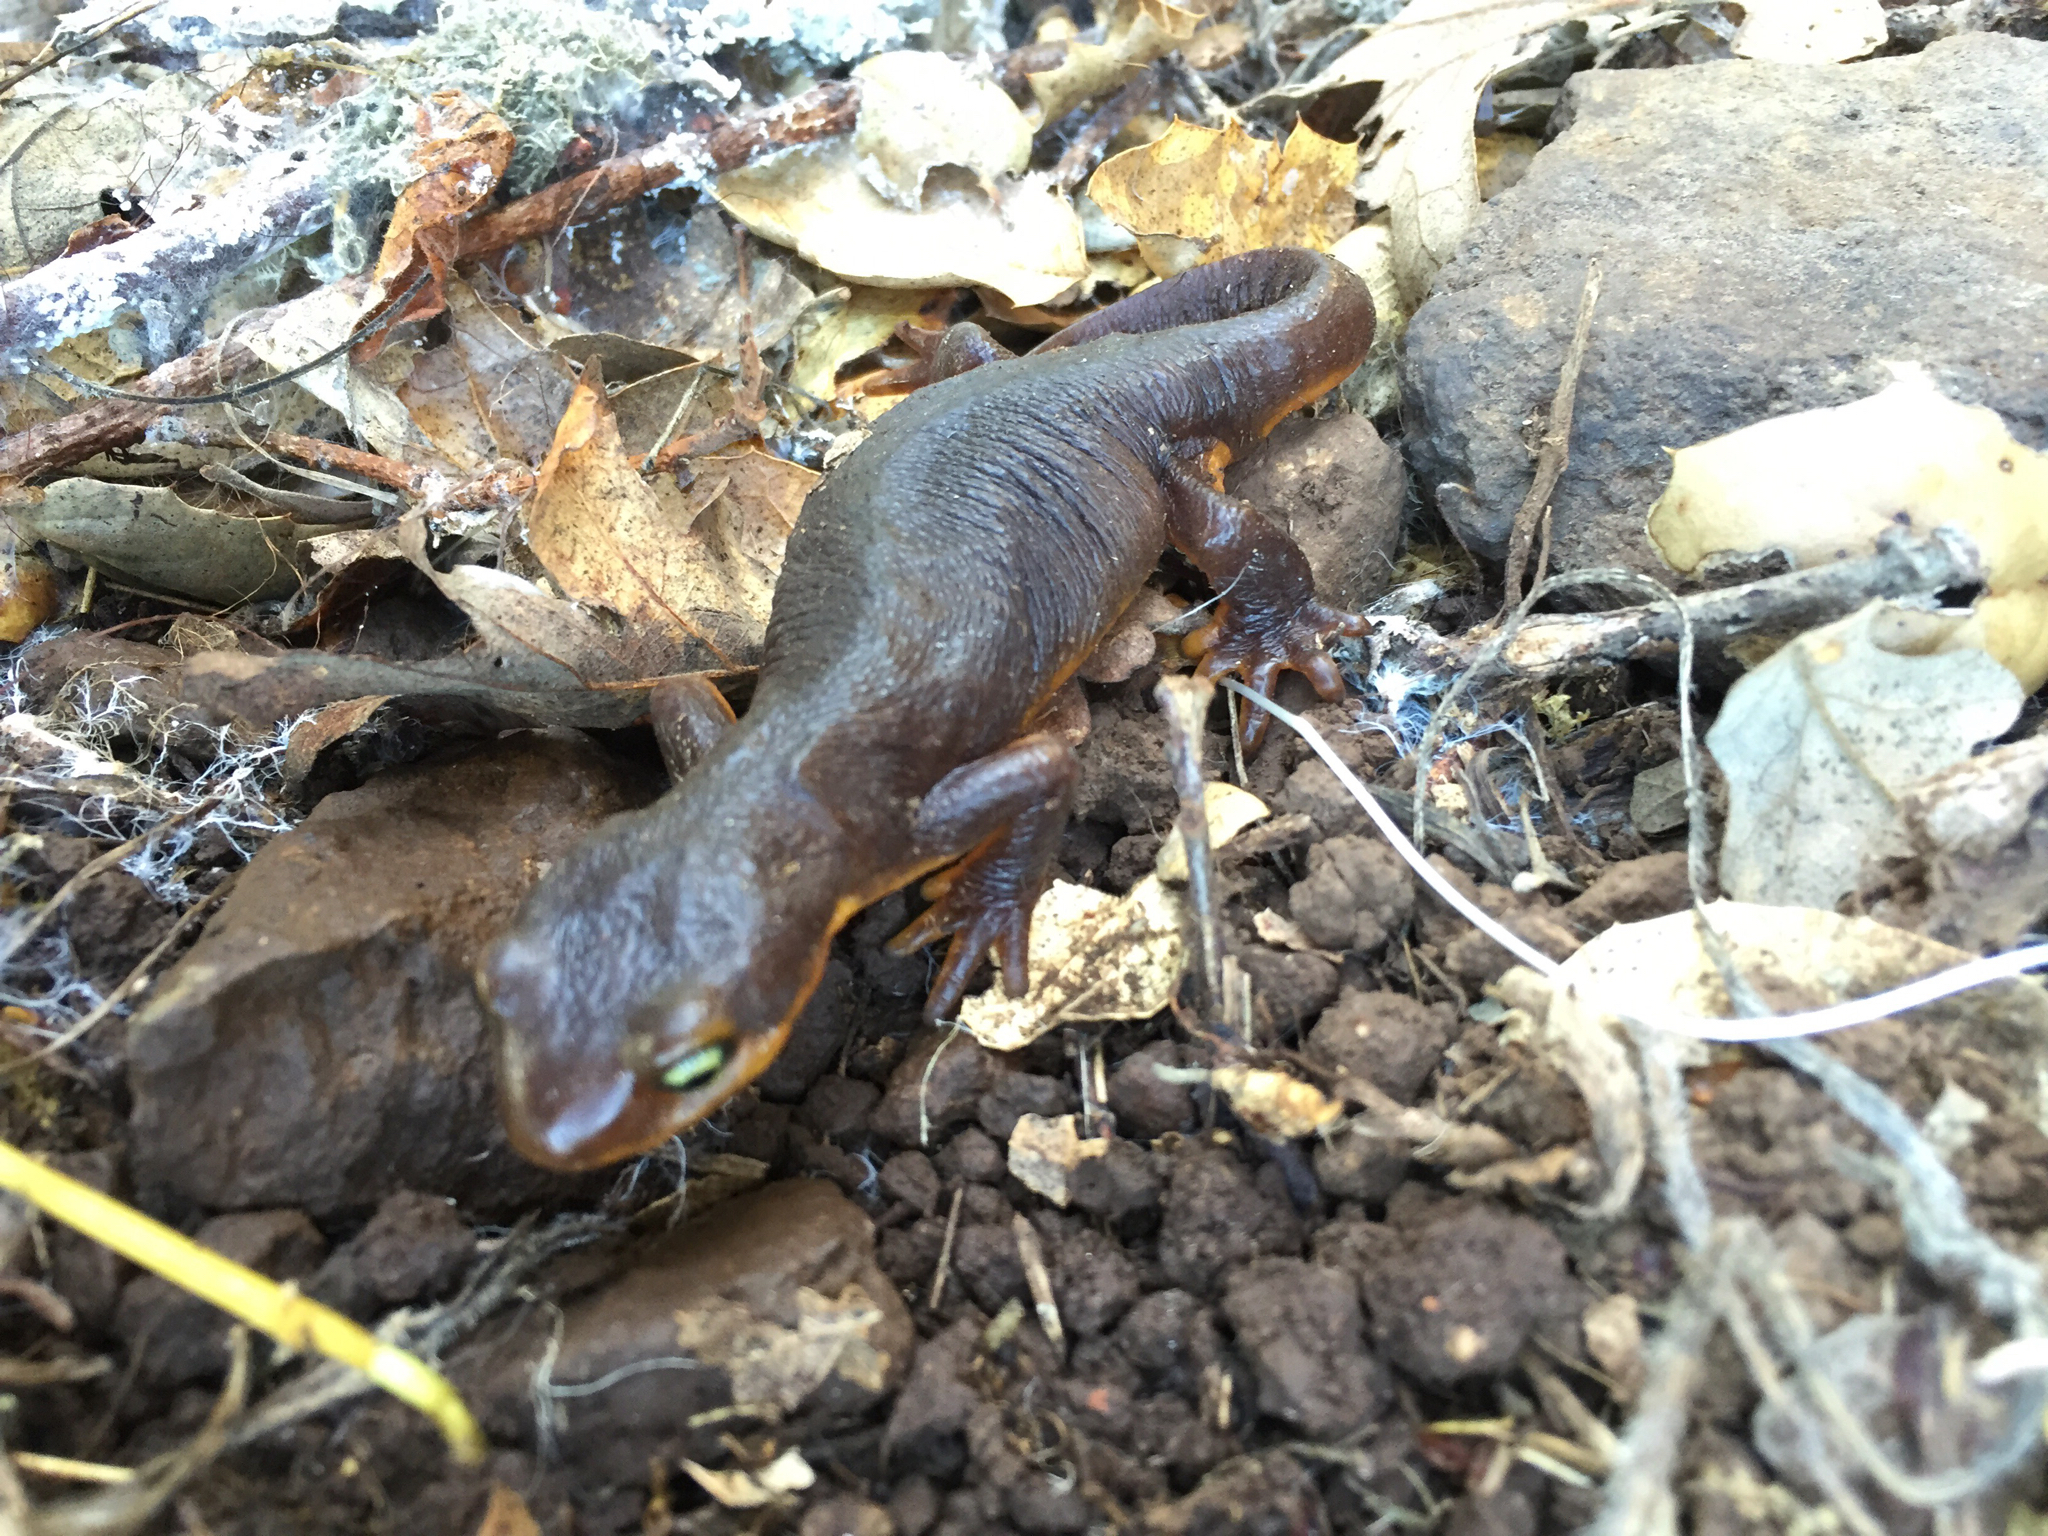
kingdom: Animalia
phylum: Chordata
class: Amphibia
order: Caudata
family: Salamandridae
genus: Taricha
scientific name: Taricha torosa
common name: California newt
